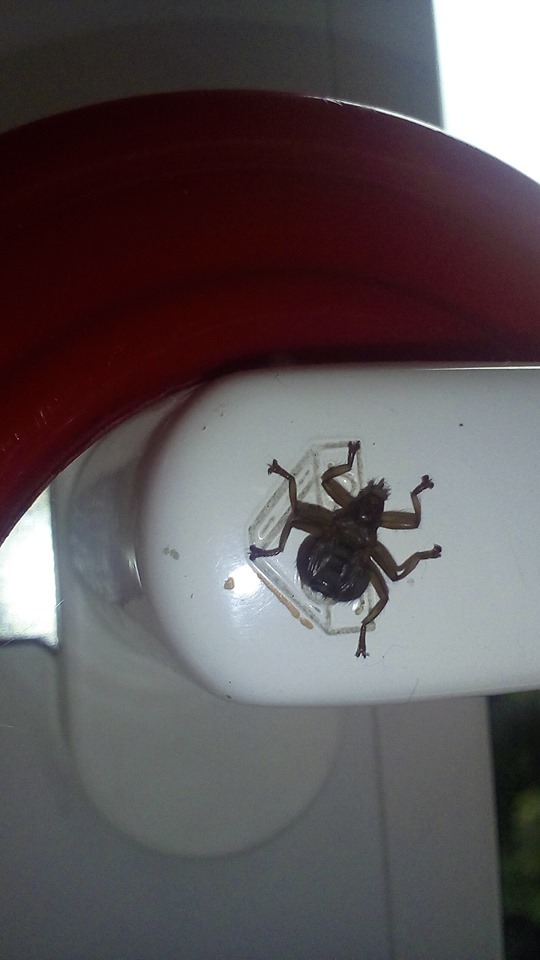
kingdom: Animalia
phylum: Arthropoda
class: Insecta
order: Diptera
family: Hippoboscidae
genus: Crataerina
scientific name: Crataerina pallida
